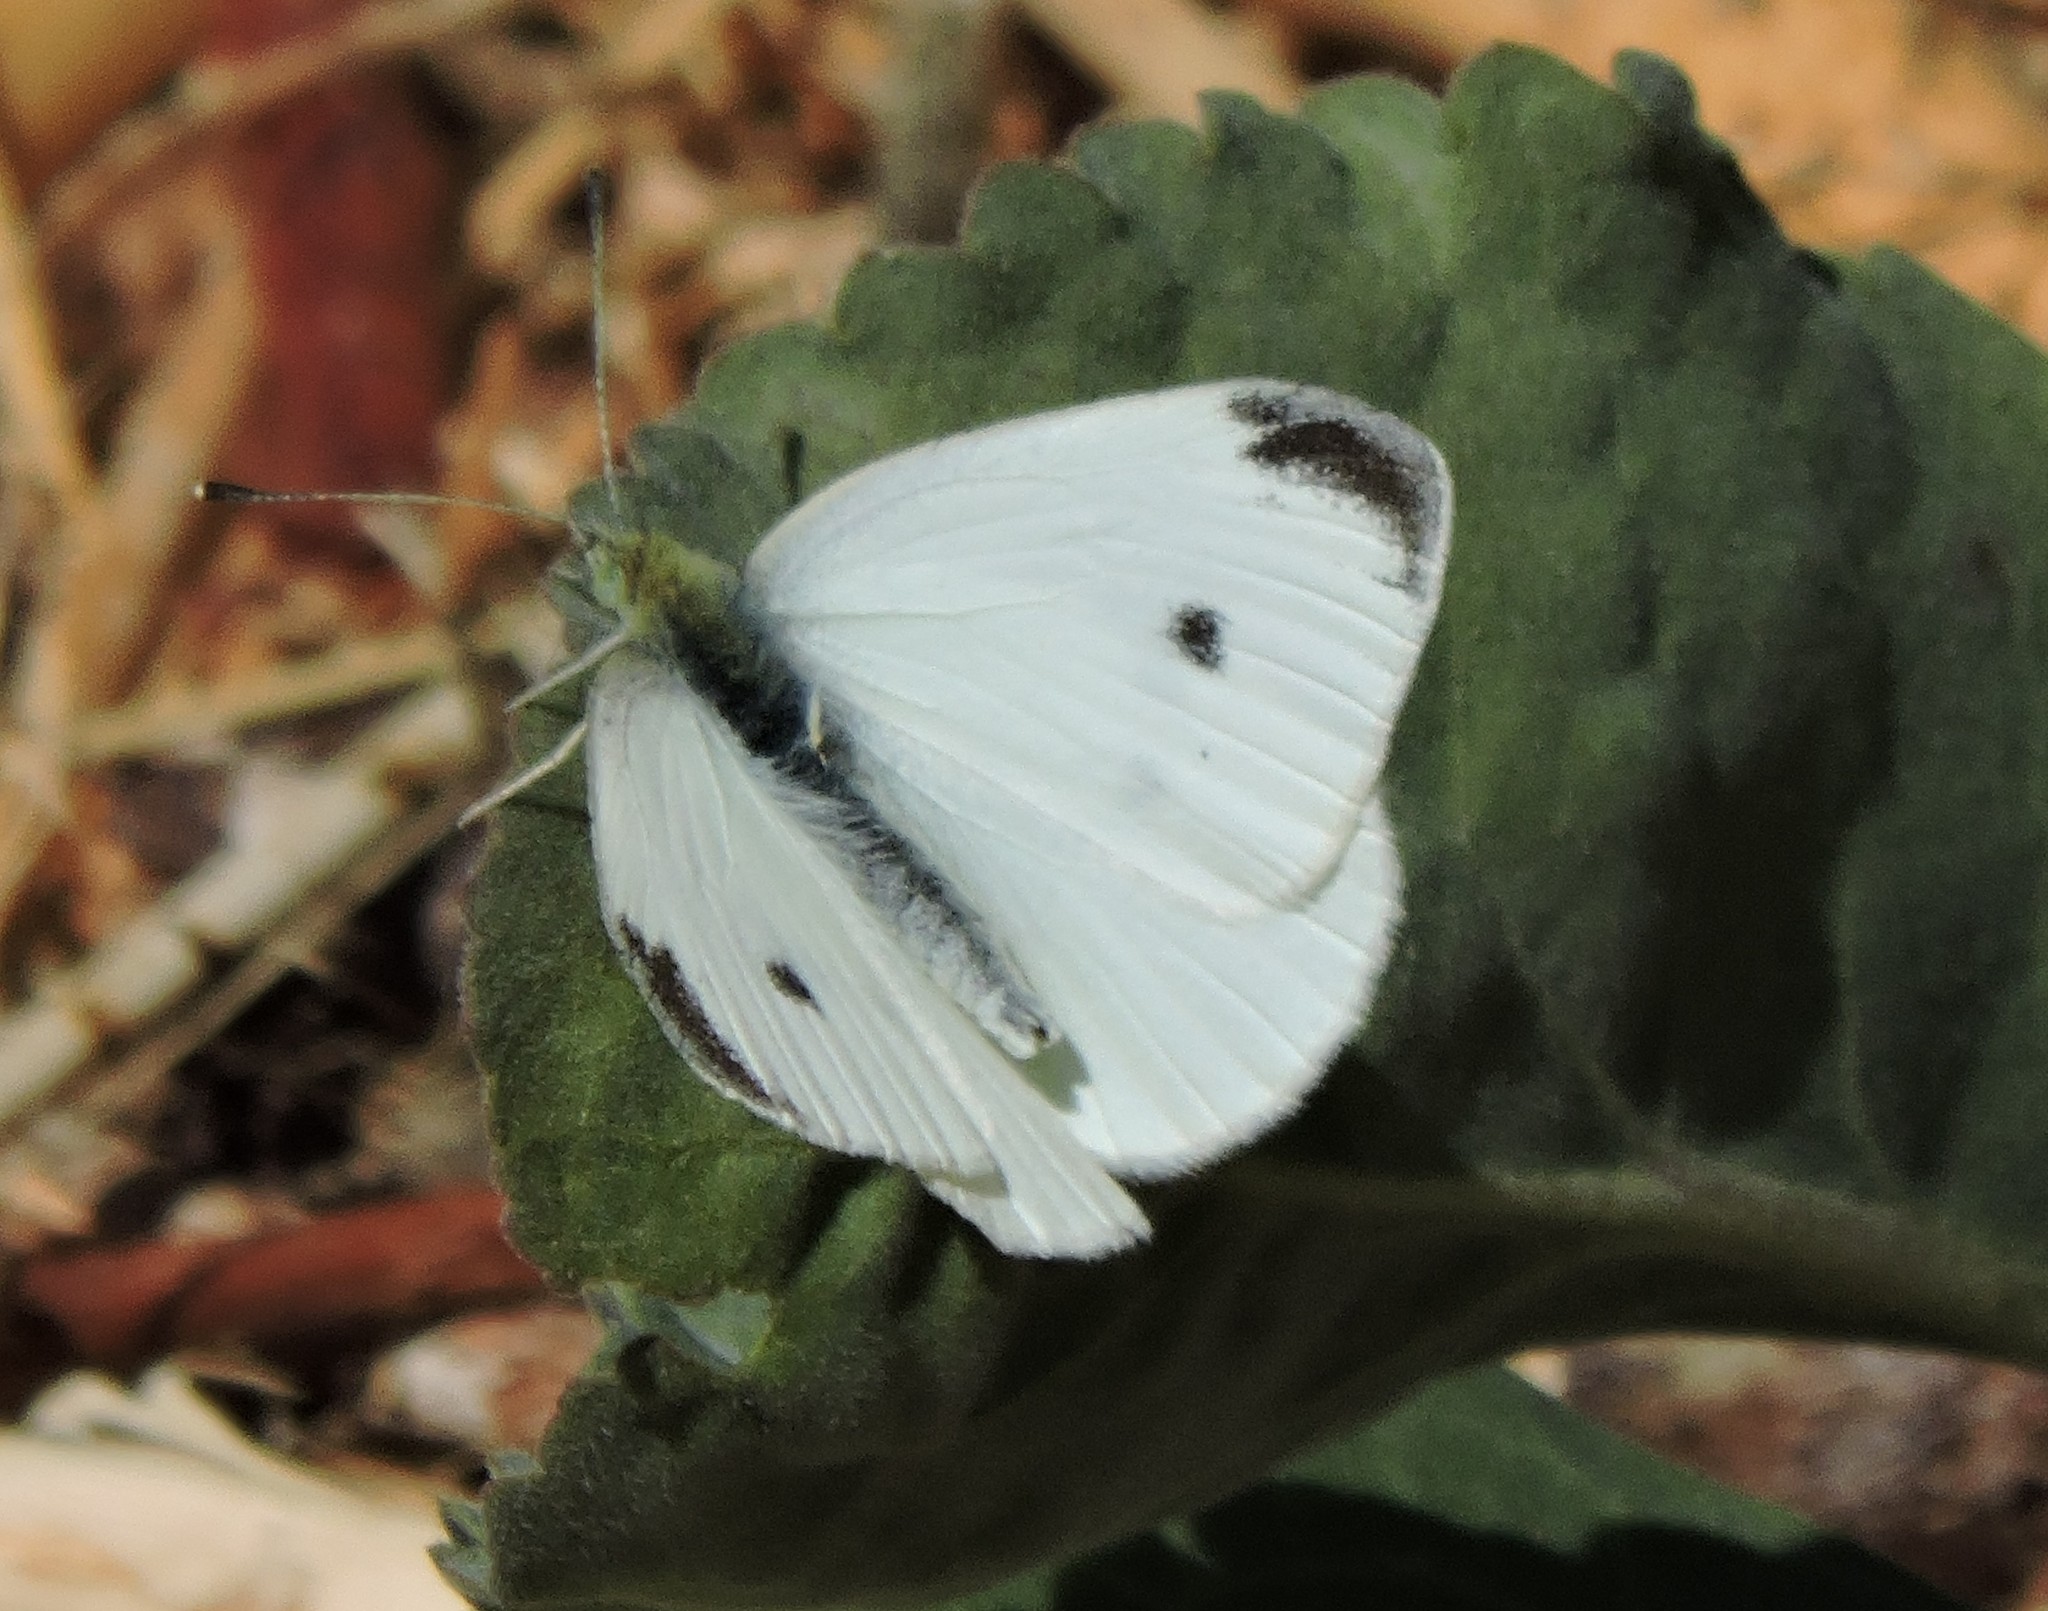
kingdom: Animalia
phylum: Arthropoda
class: Insecta
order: Lepidoptera
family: Pieridae
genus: Pieris
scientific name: Pieris rapae
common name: Small white
